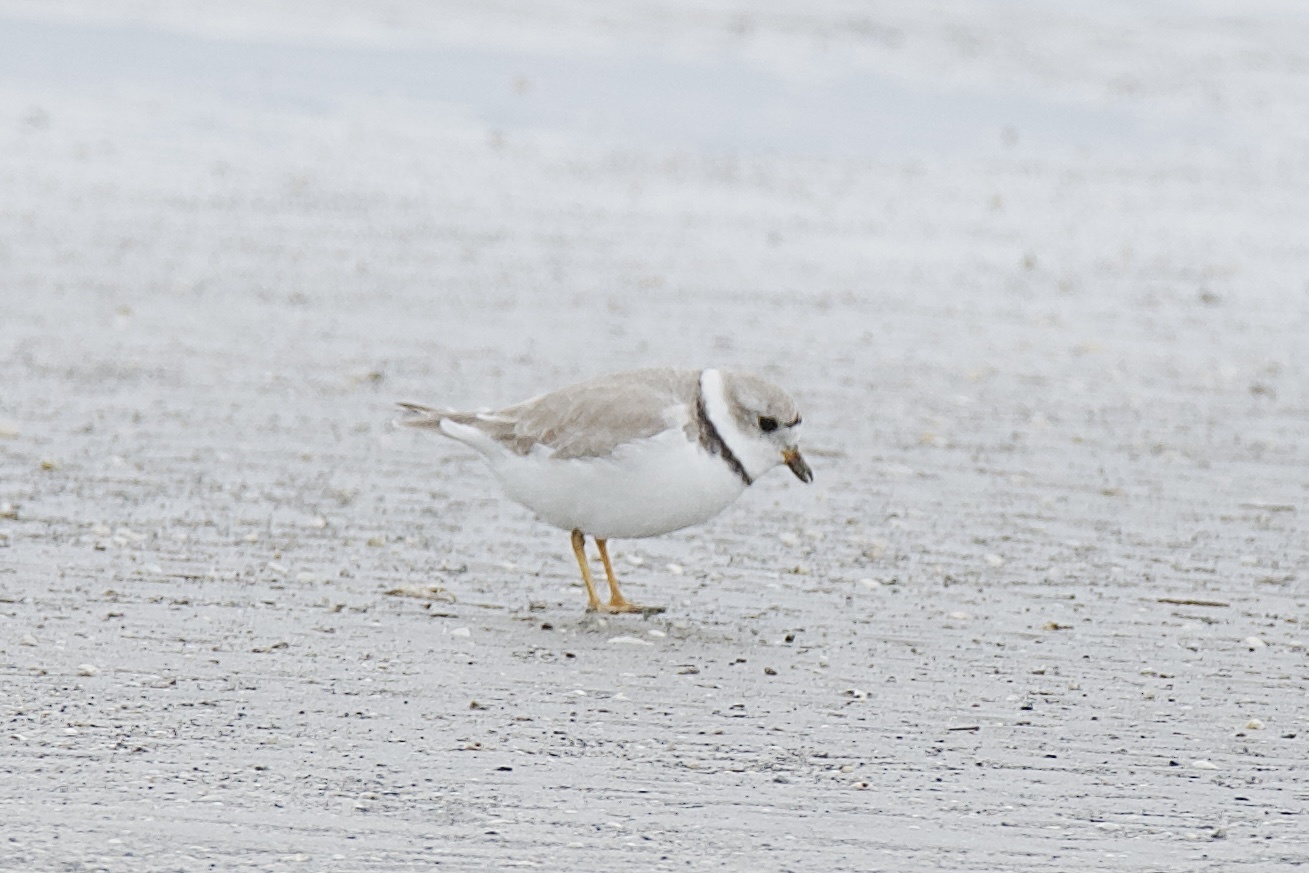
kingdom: Animalia
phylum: Chordata
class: Aves
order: Charadriiformes
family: Charadriidae
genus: Charadrius
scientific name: Charadrius melodus
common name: Piping plover
